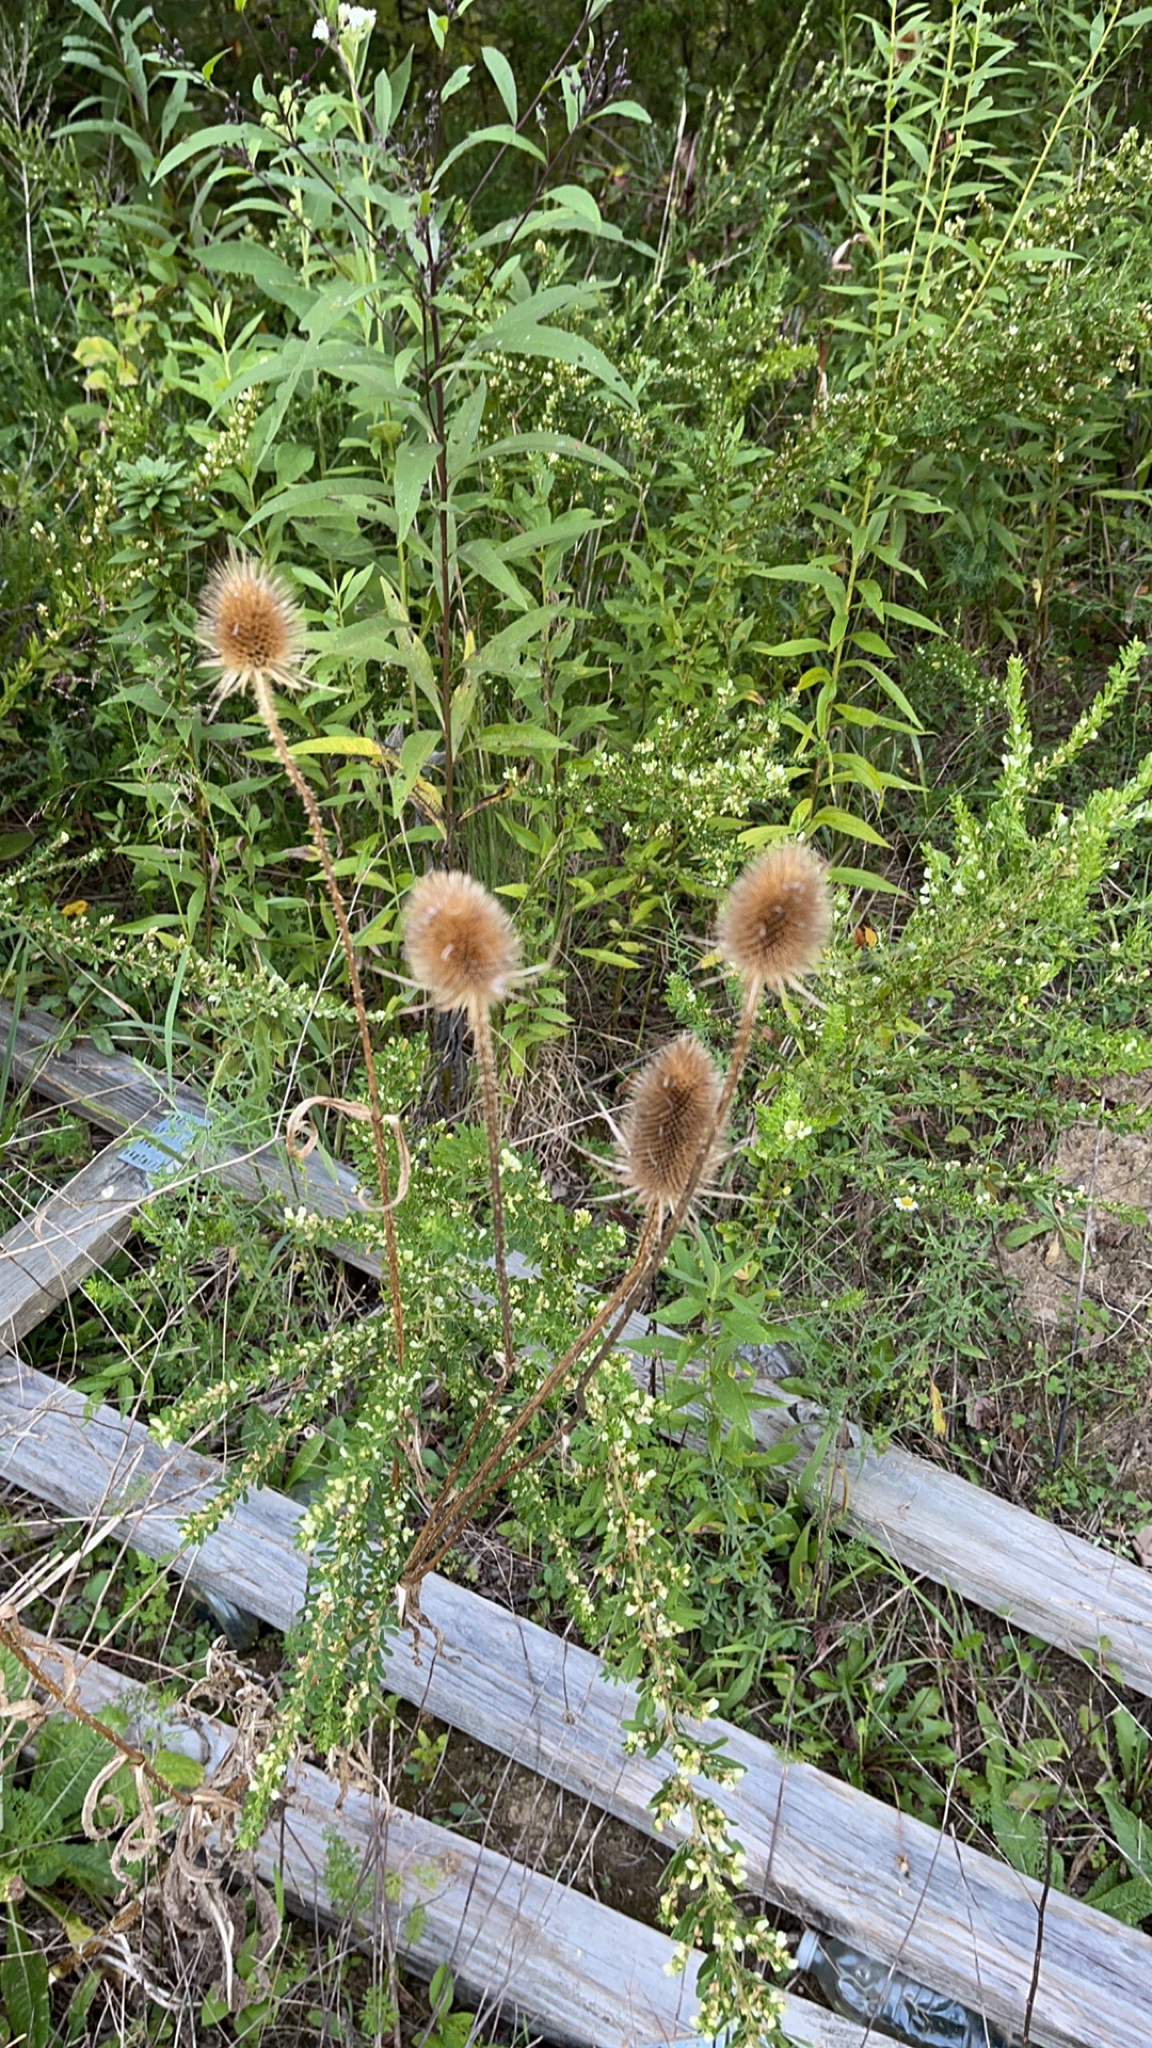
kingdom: Plantae
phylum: Tracheophyta
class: Magnoliopsida
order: Dipsacales
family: Caprifoliaceae
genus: Dipsacus
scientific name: Dipsacus fullonum
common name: Teasel
